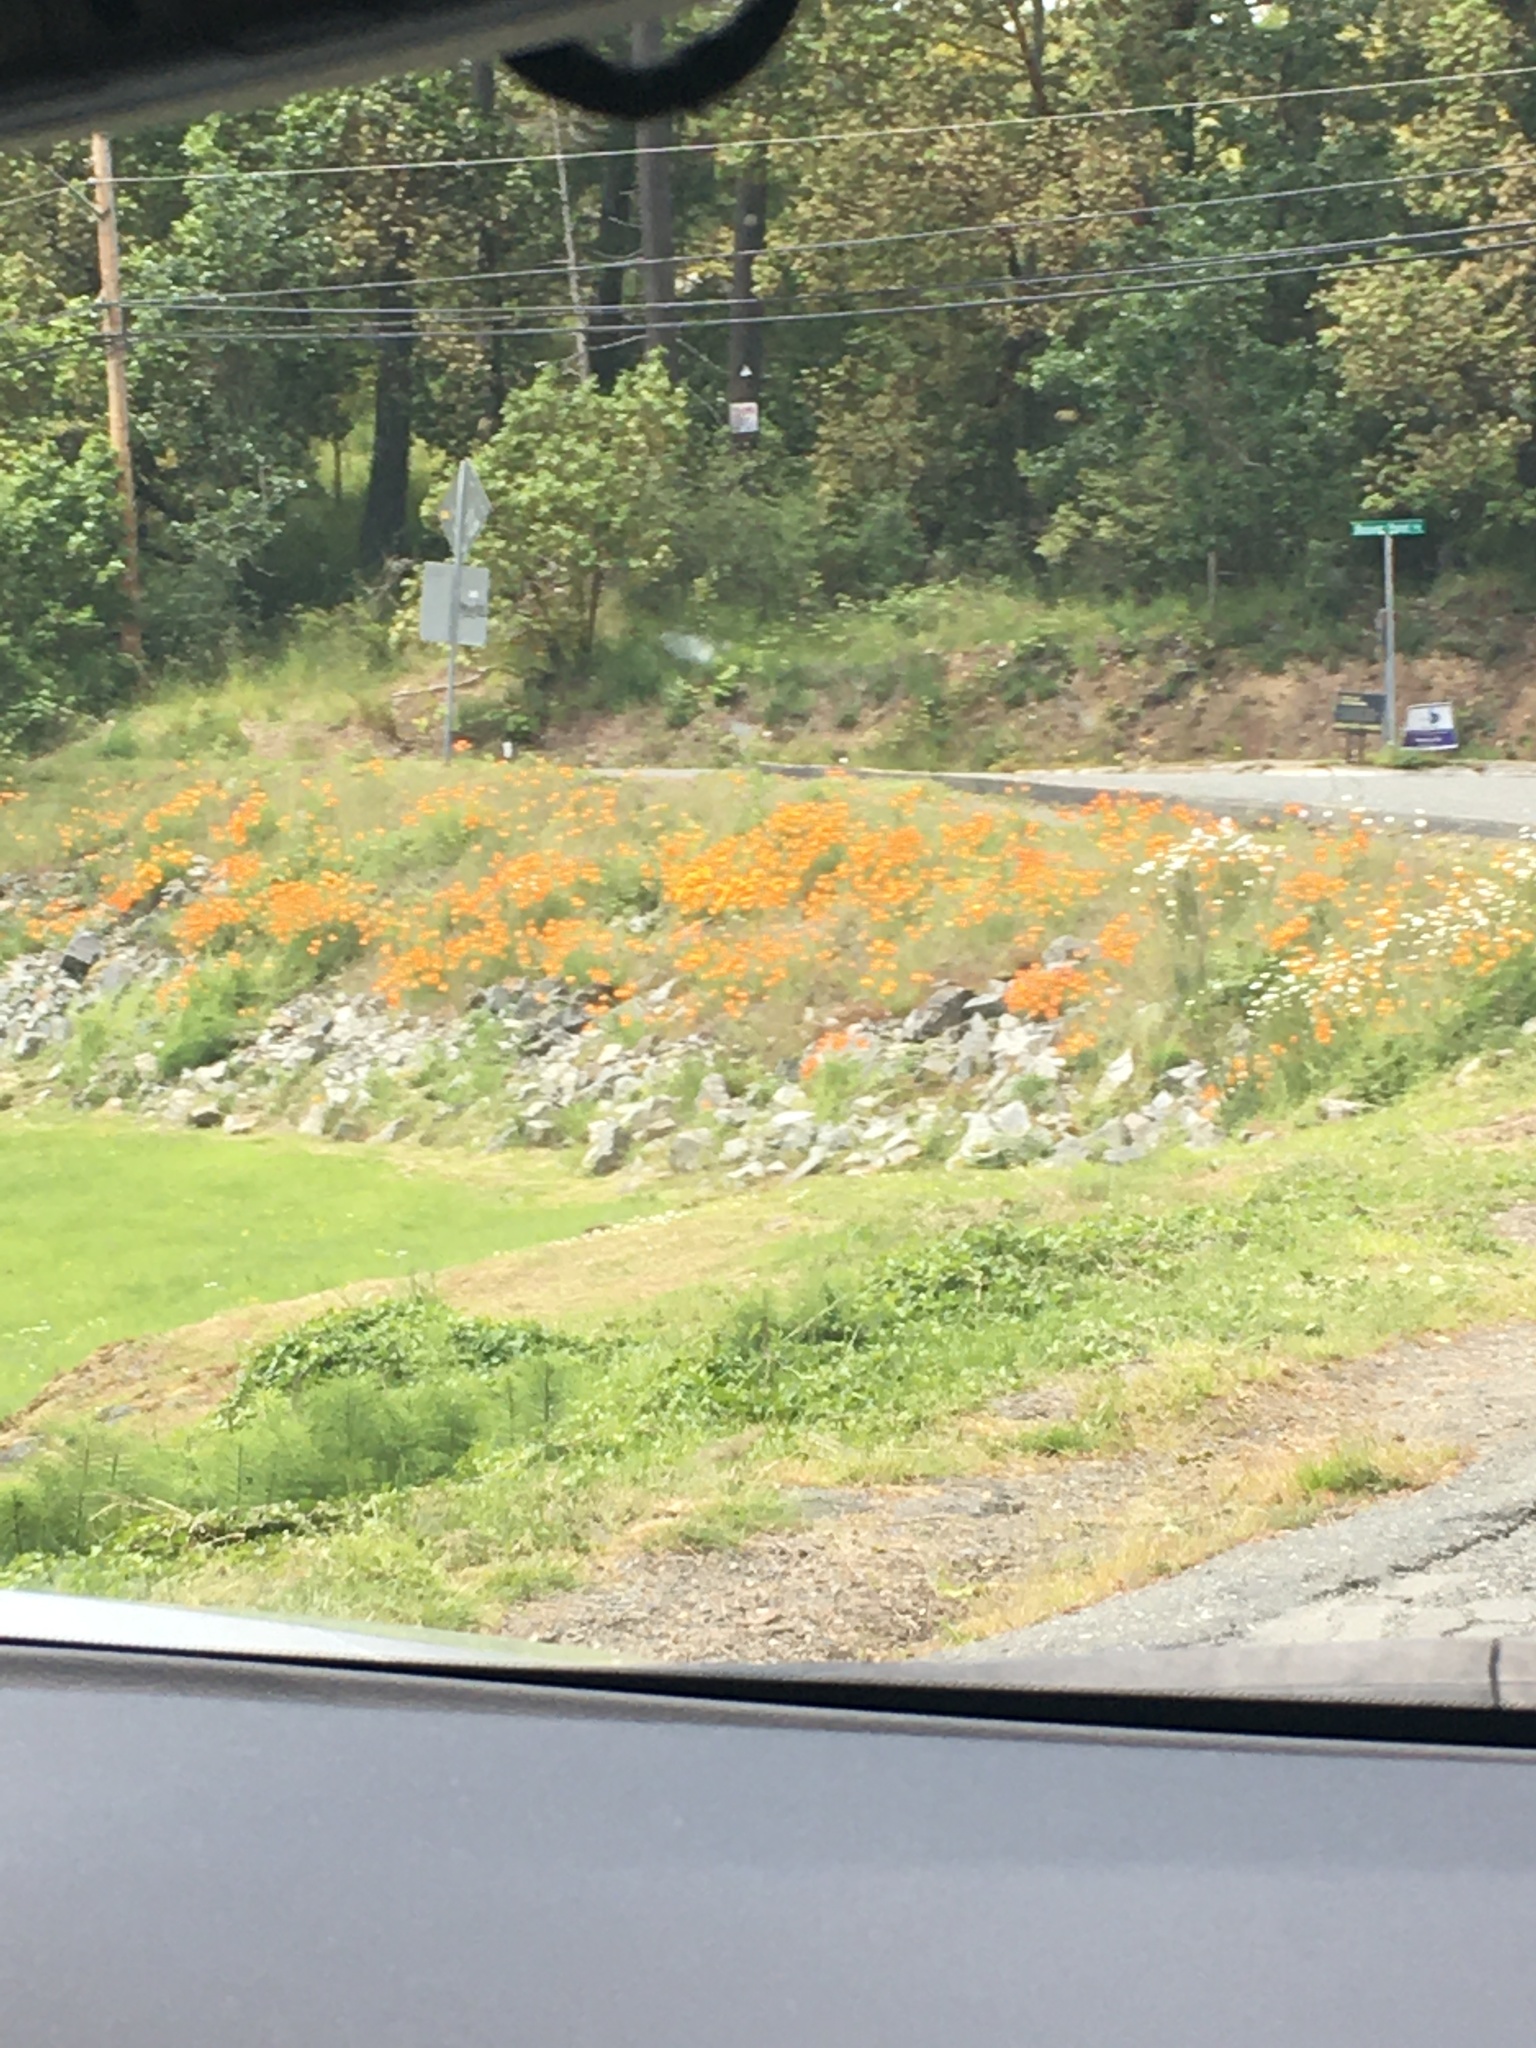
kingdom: Plantae
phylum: Tracheophyta
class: Magnoliopsida
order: Ranunculales
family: Papaveraceae
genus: Eschscholzia
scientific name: Eschscholzia californica
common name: California poppy
